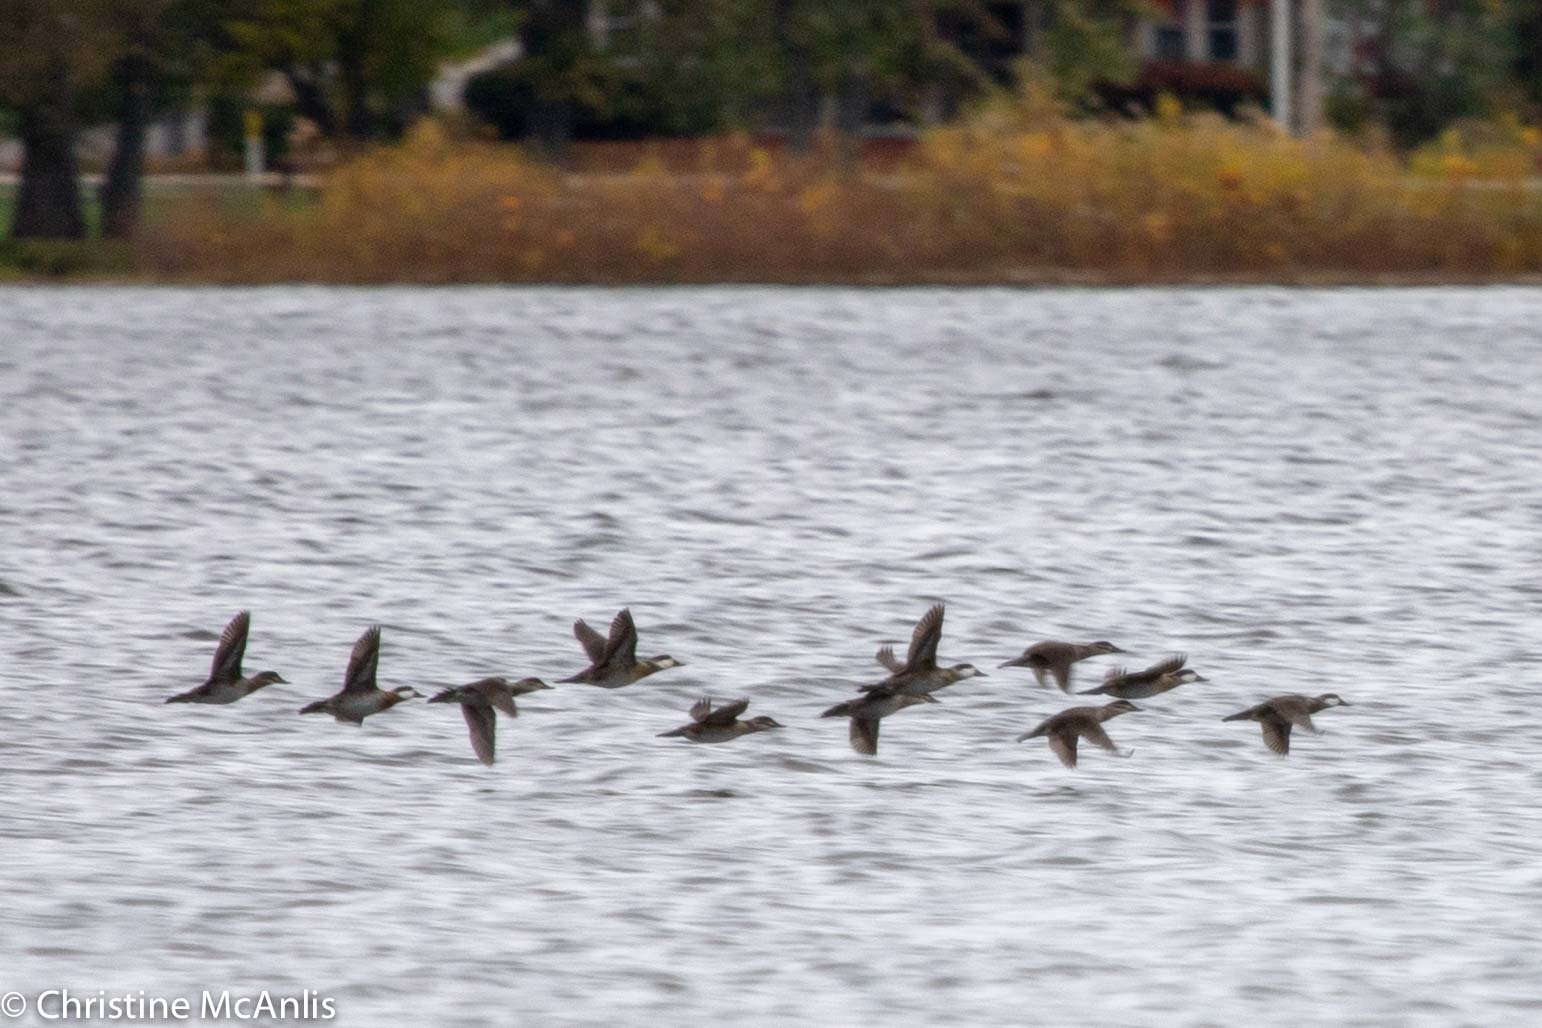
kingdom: Animalia
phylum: Chordata
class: Aves
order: Anseriformes
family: Anatidae
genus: Oxyura
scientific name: Oxyura jamaicensis
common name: Ruddy duck
